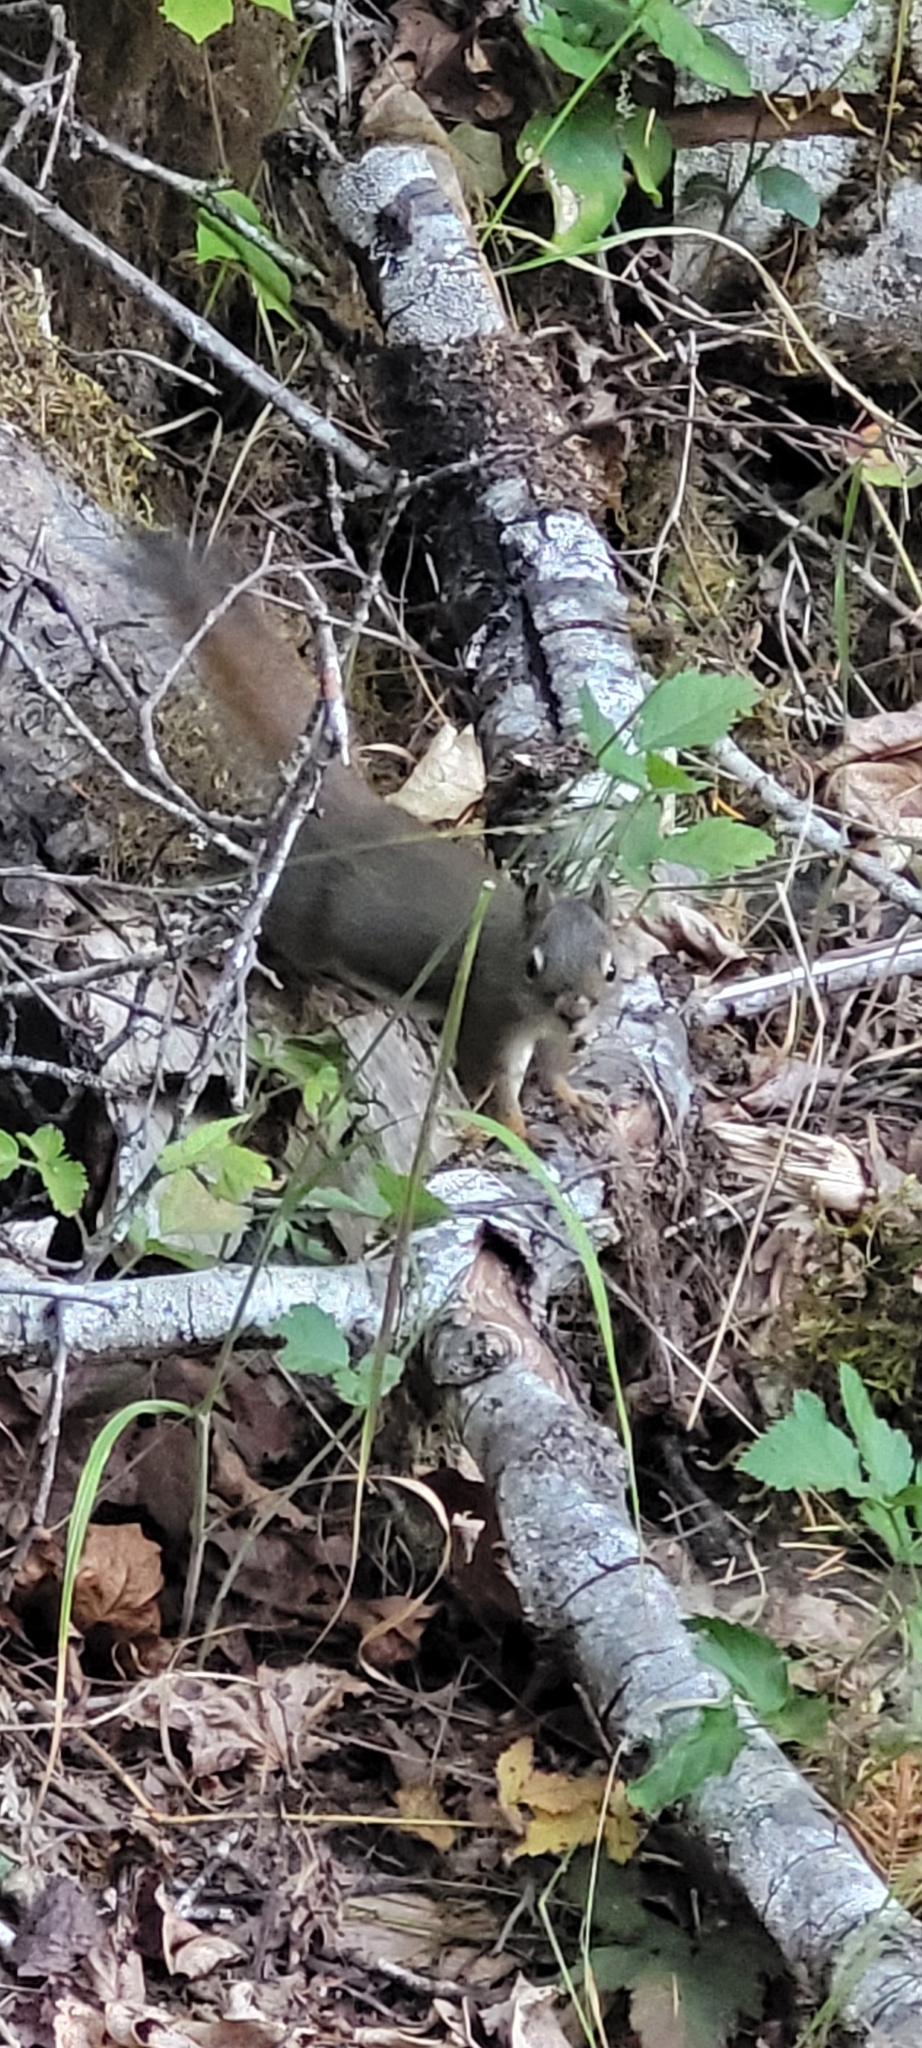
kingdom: Animalia
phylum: Chordata
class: Mammalia
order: Rodentia
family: Sciuridae
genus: Tamiasciurus
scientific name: Tamiasciurus hudsonicus
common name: Red squirrel
